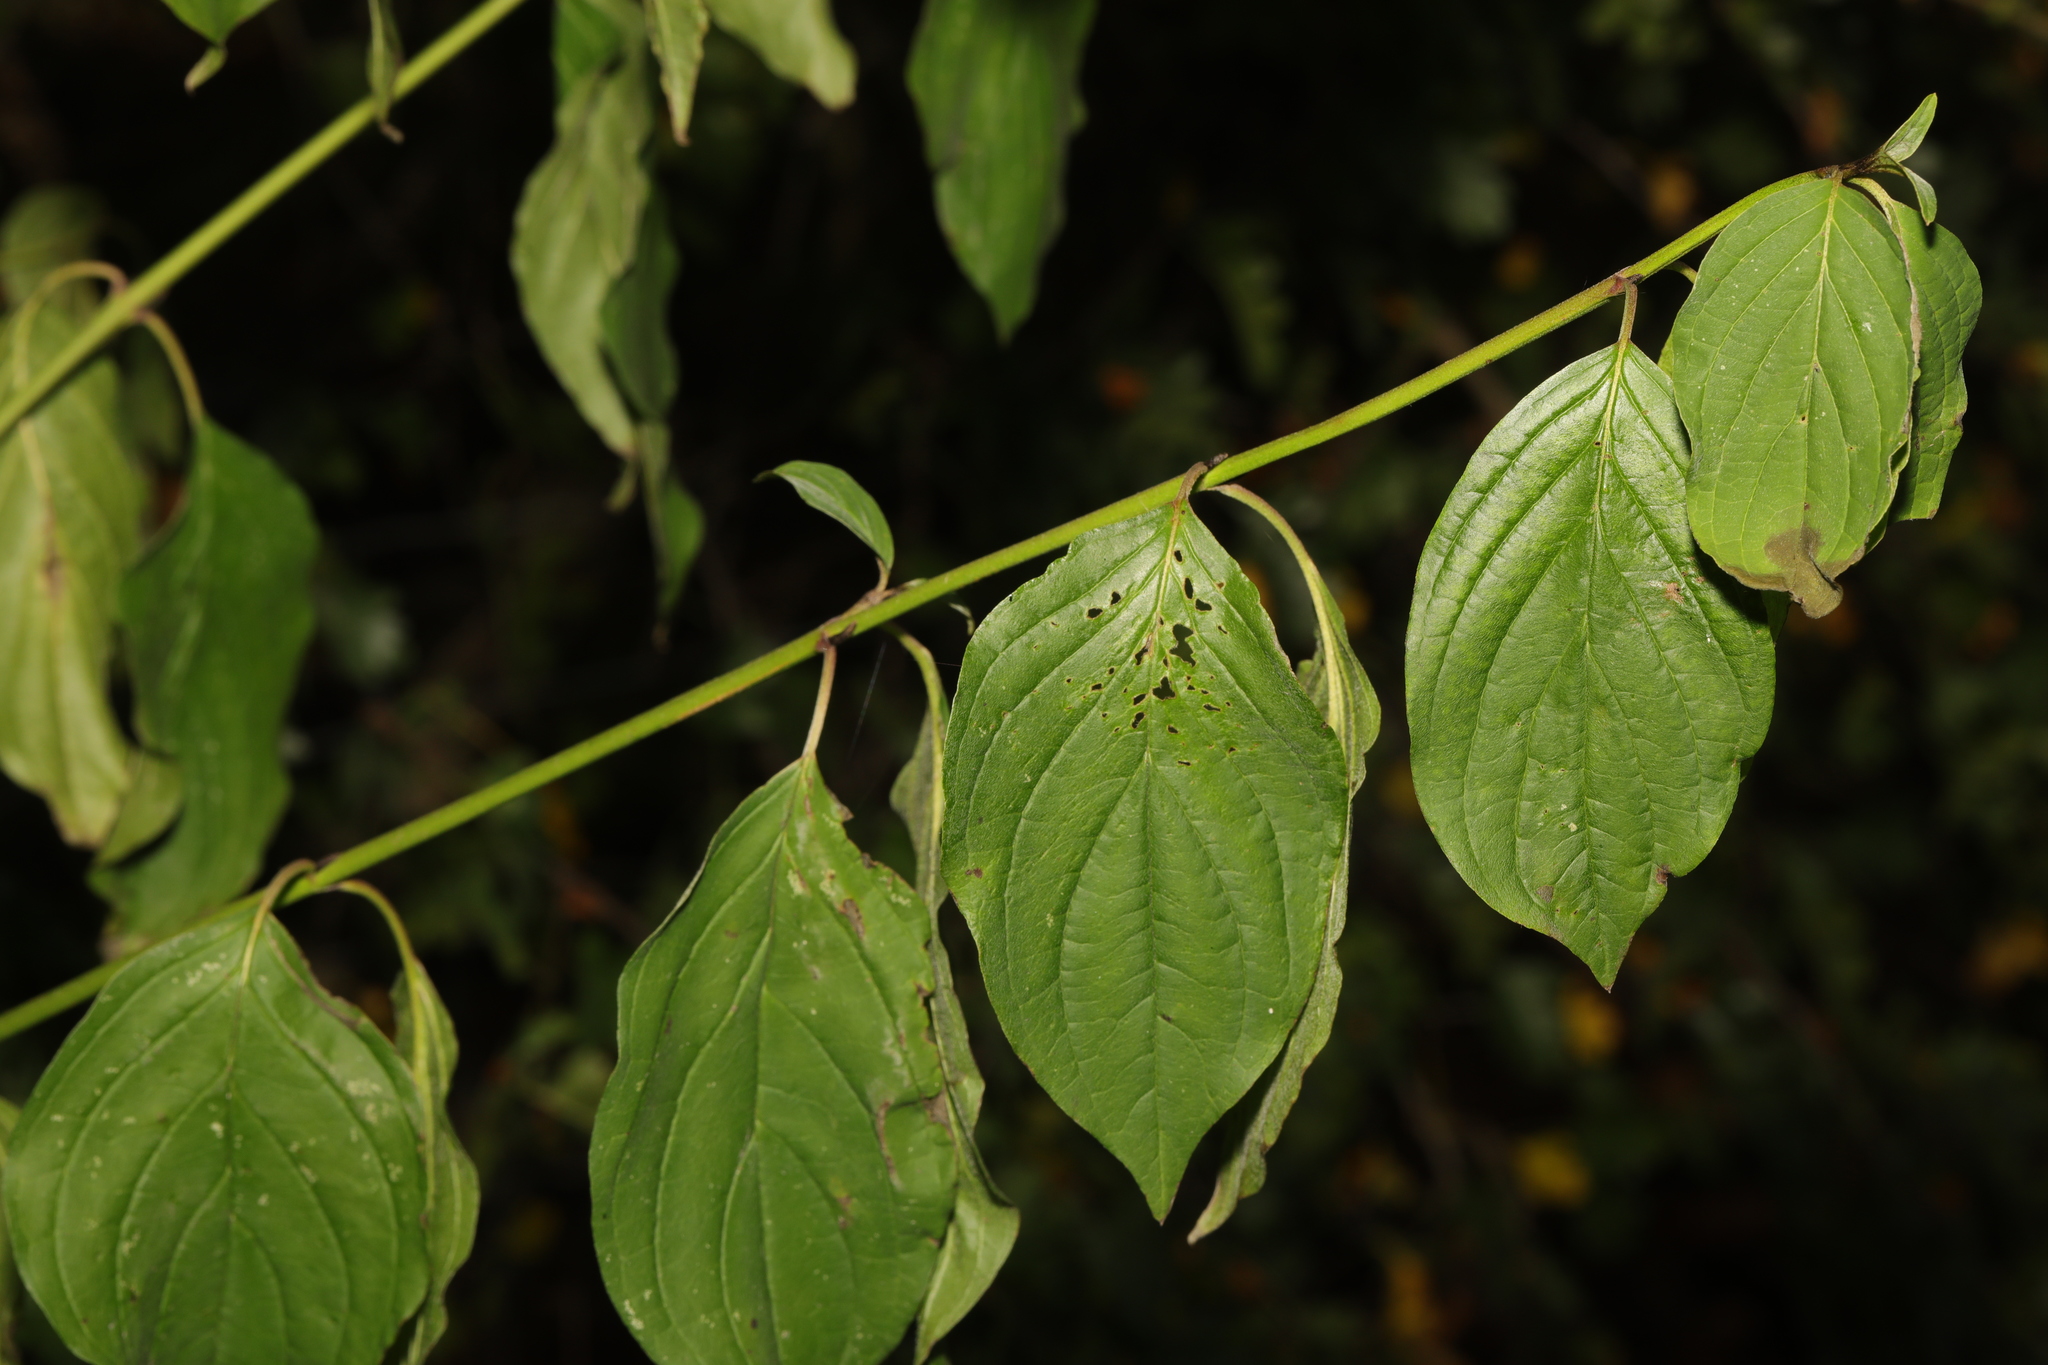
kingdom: Plantae
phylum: Tracheophyta
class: Magnoliopsida
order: Cornales
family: Cornaceae
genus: Cornus
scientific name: Cornus sanguinea
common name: Dogwood
